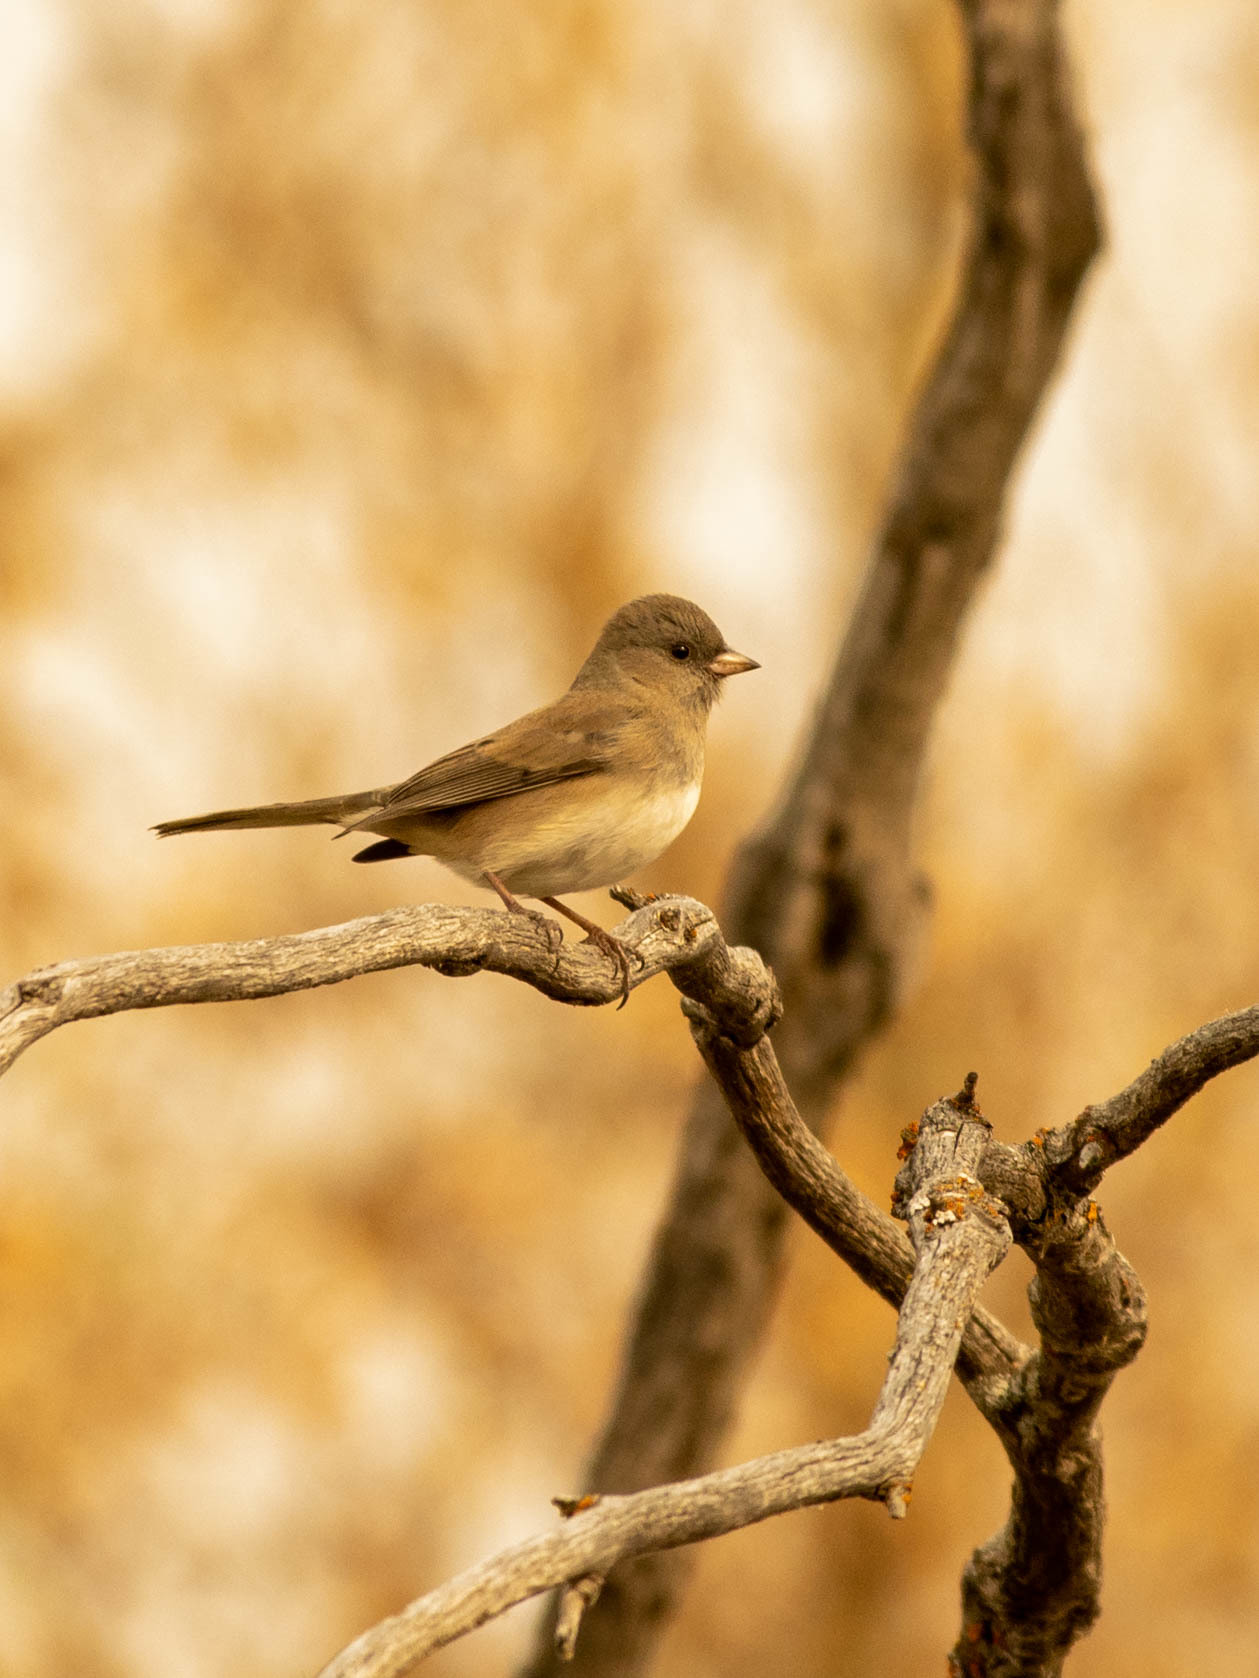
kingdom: Animalia
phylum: Chordata
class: Aves
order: Passeriformes
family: Passerellidae
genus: Junco
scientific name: Junco hyemalis
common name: Dark-eyed junco
